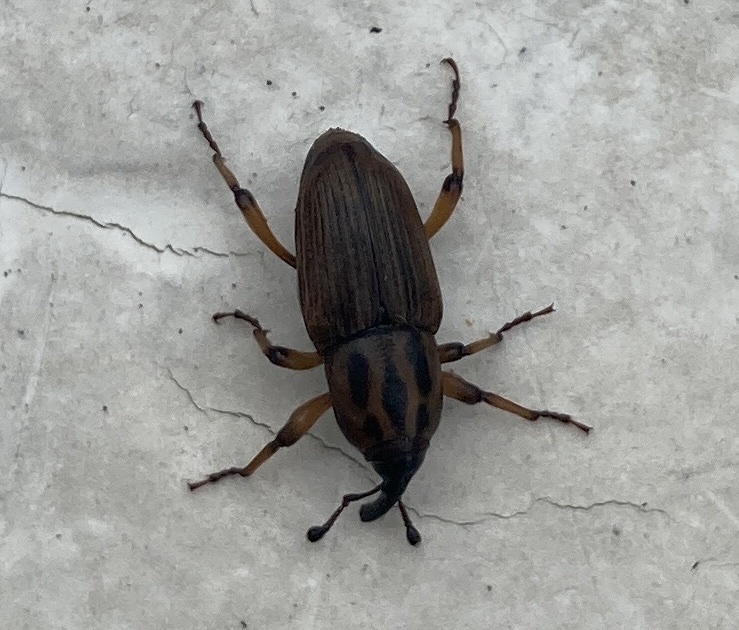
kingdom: Animalia
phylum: Arthropoda
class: Insecta
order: Coleoptera
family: Dryophthoridae
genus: Sphenophorus
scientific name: Sphenophorus brunnipennis
